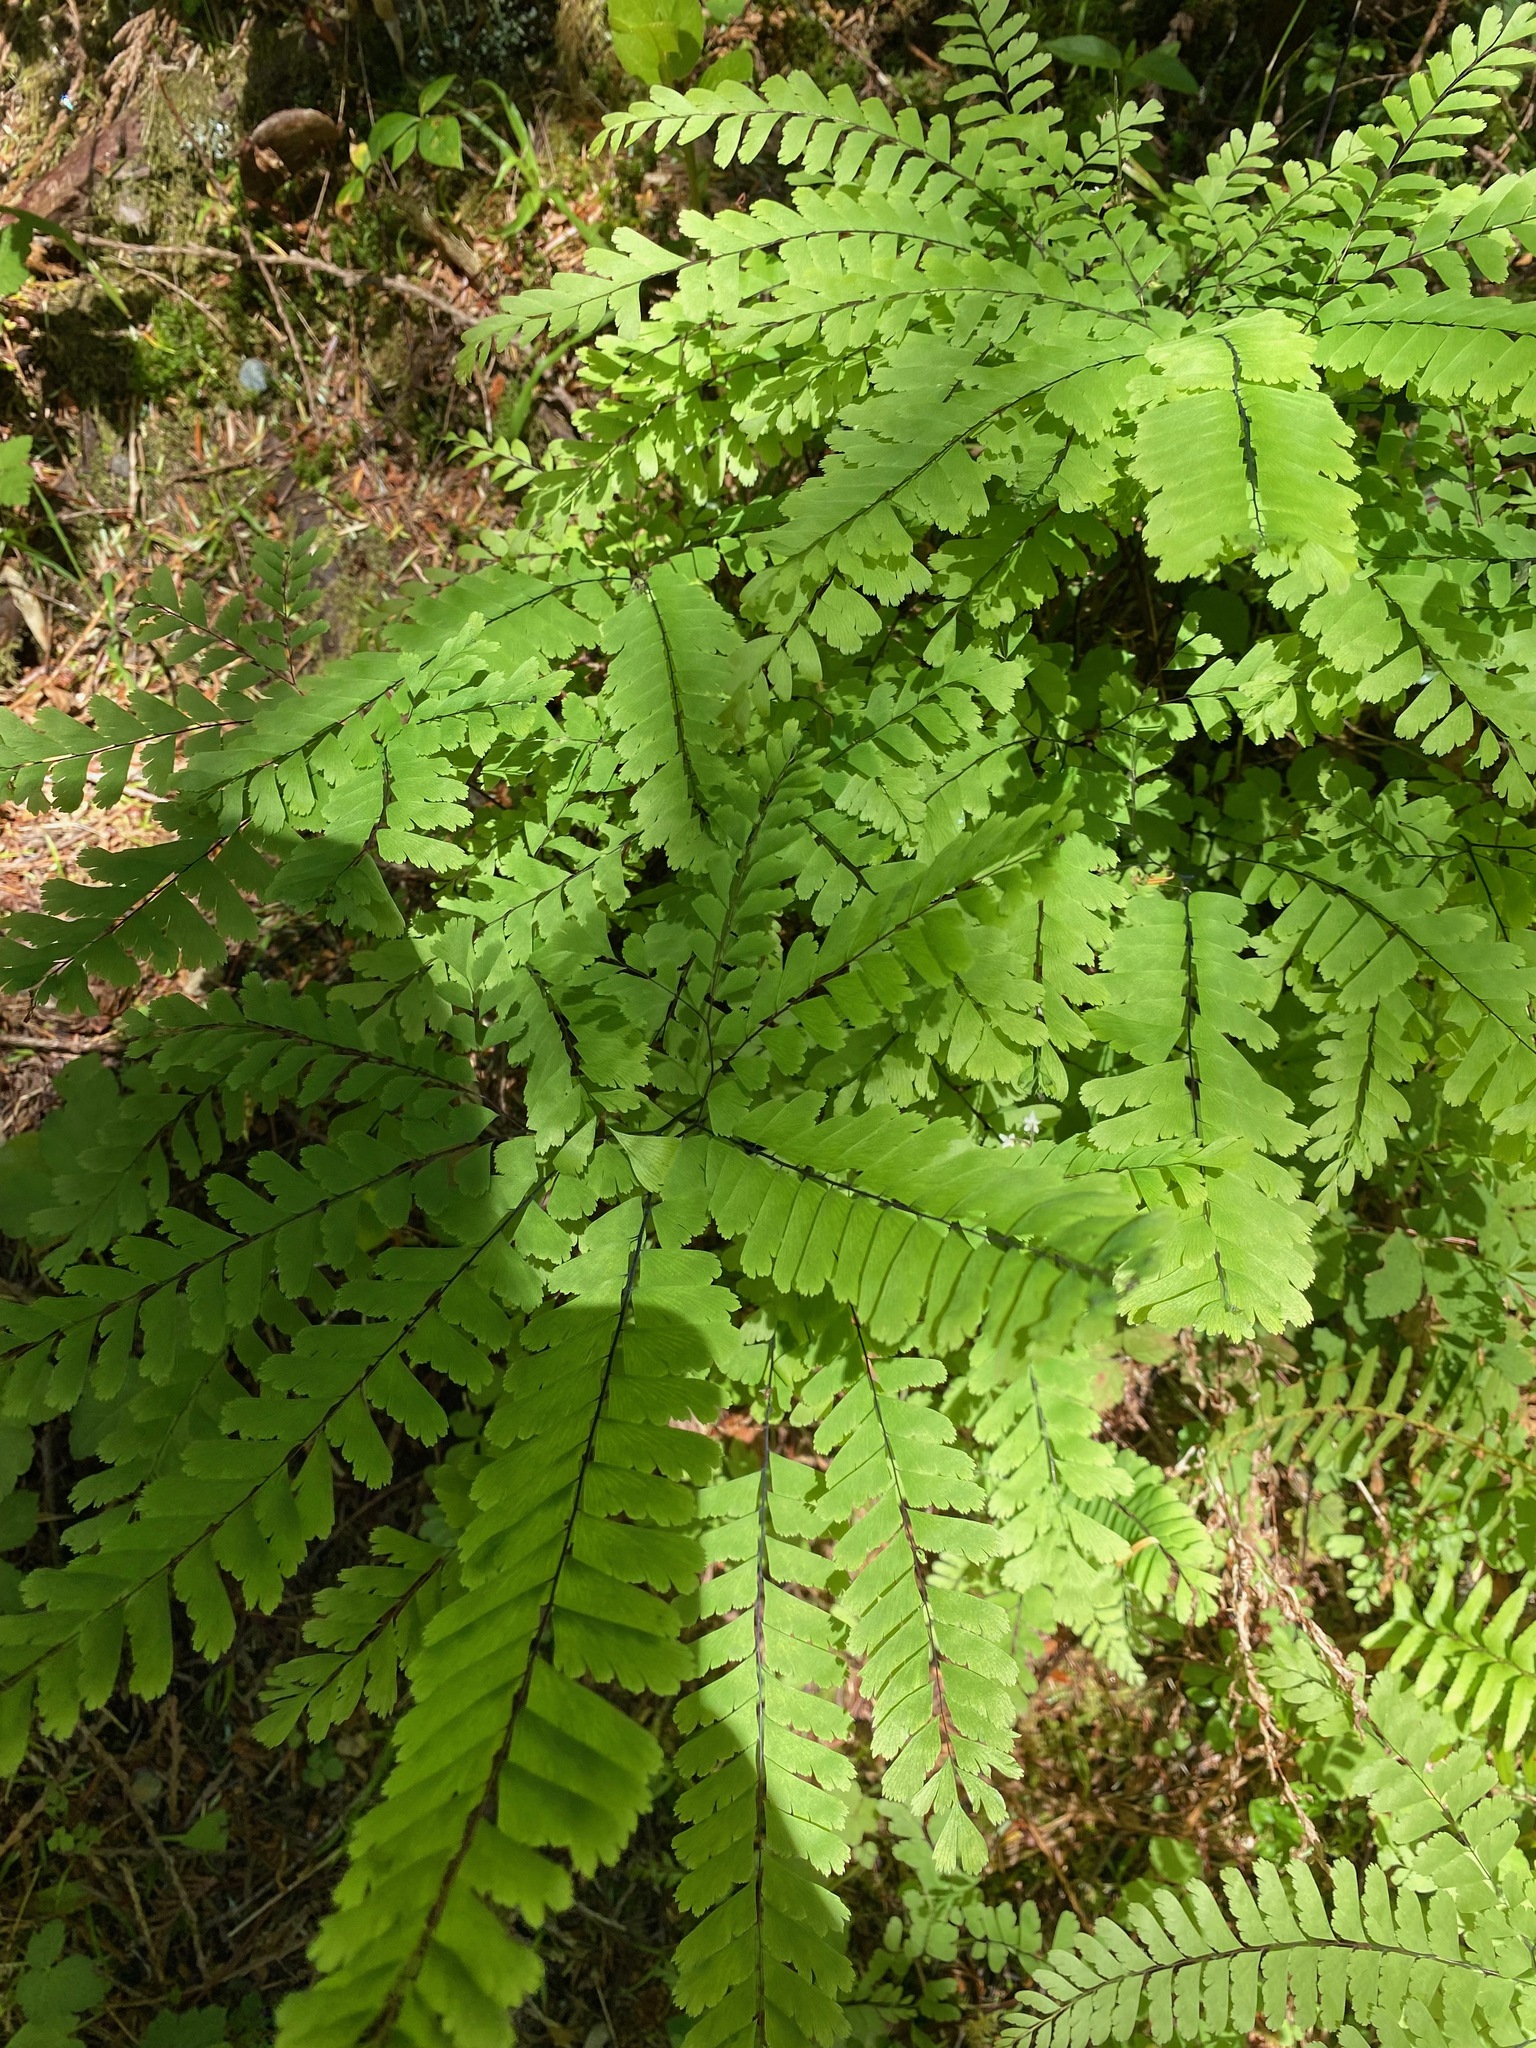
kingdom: Plantae
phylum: Tracheophyta
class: Polypodiopsida
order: Polypodiales
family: Pteridaceae
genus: Adiantum
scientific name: Adiantum aleuticum
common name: Aleutian maidenhair fern
